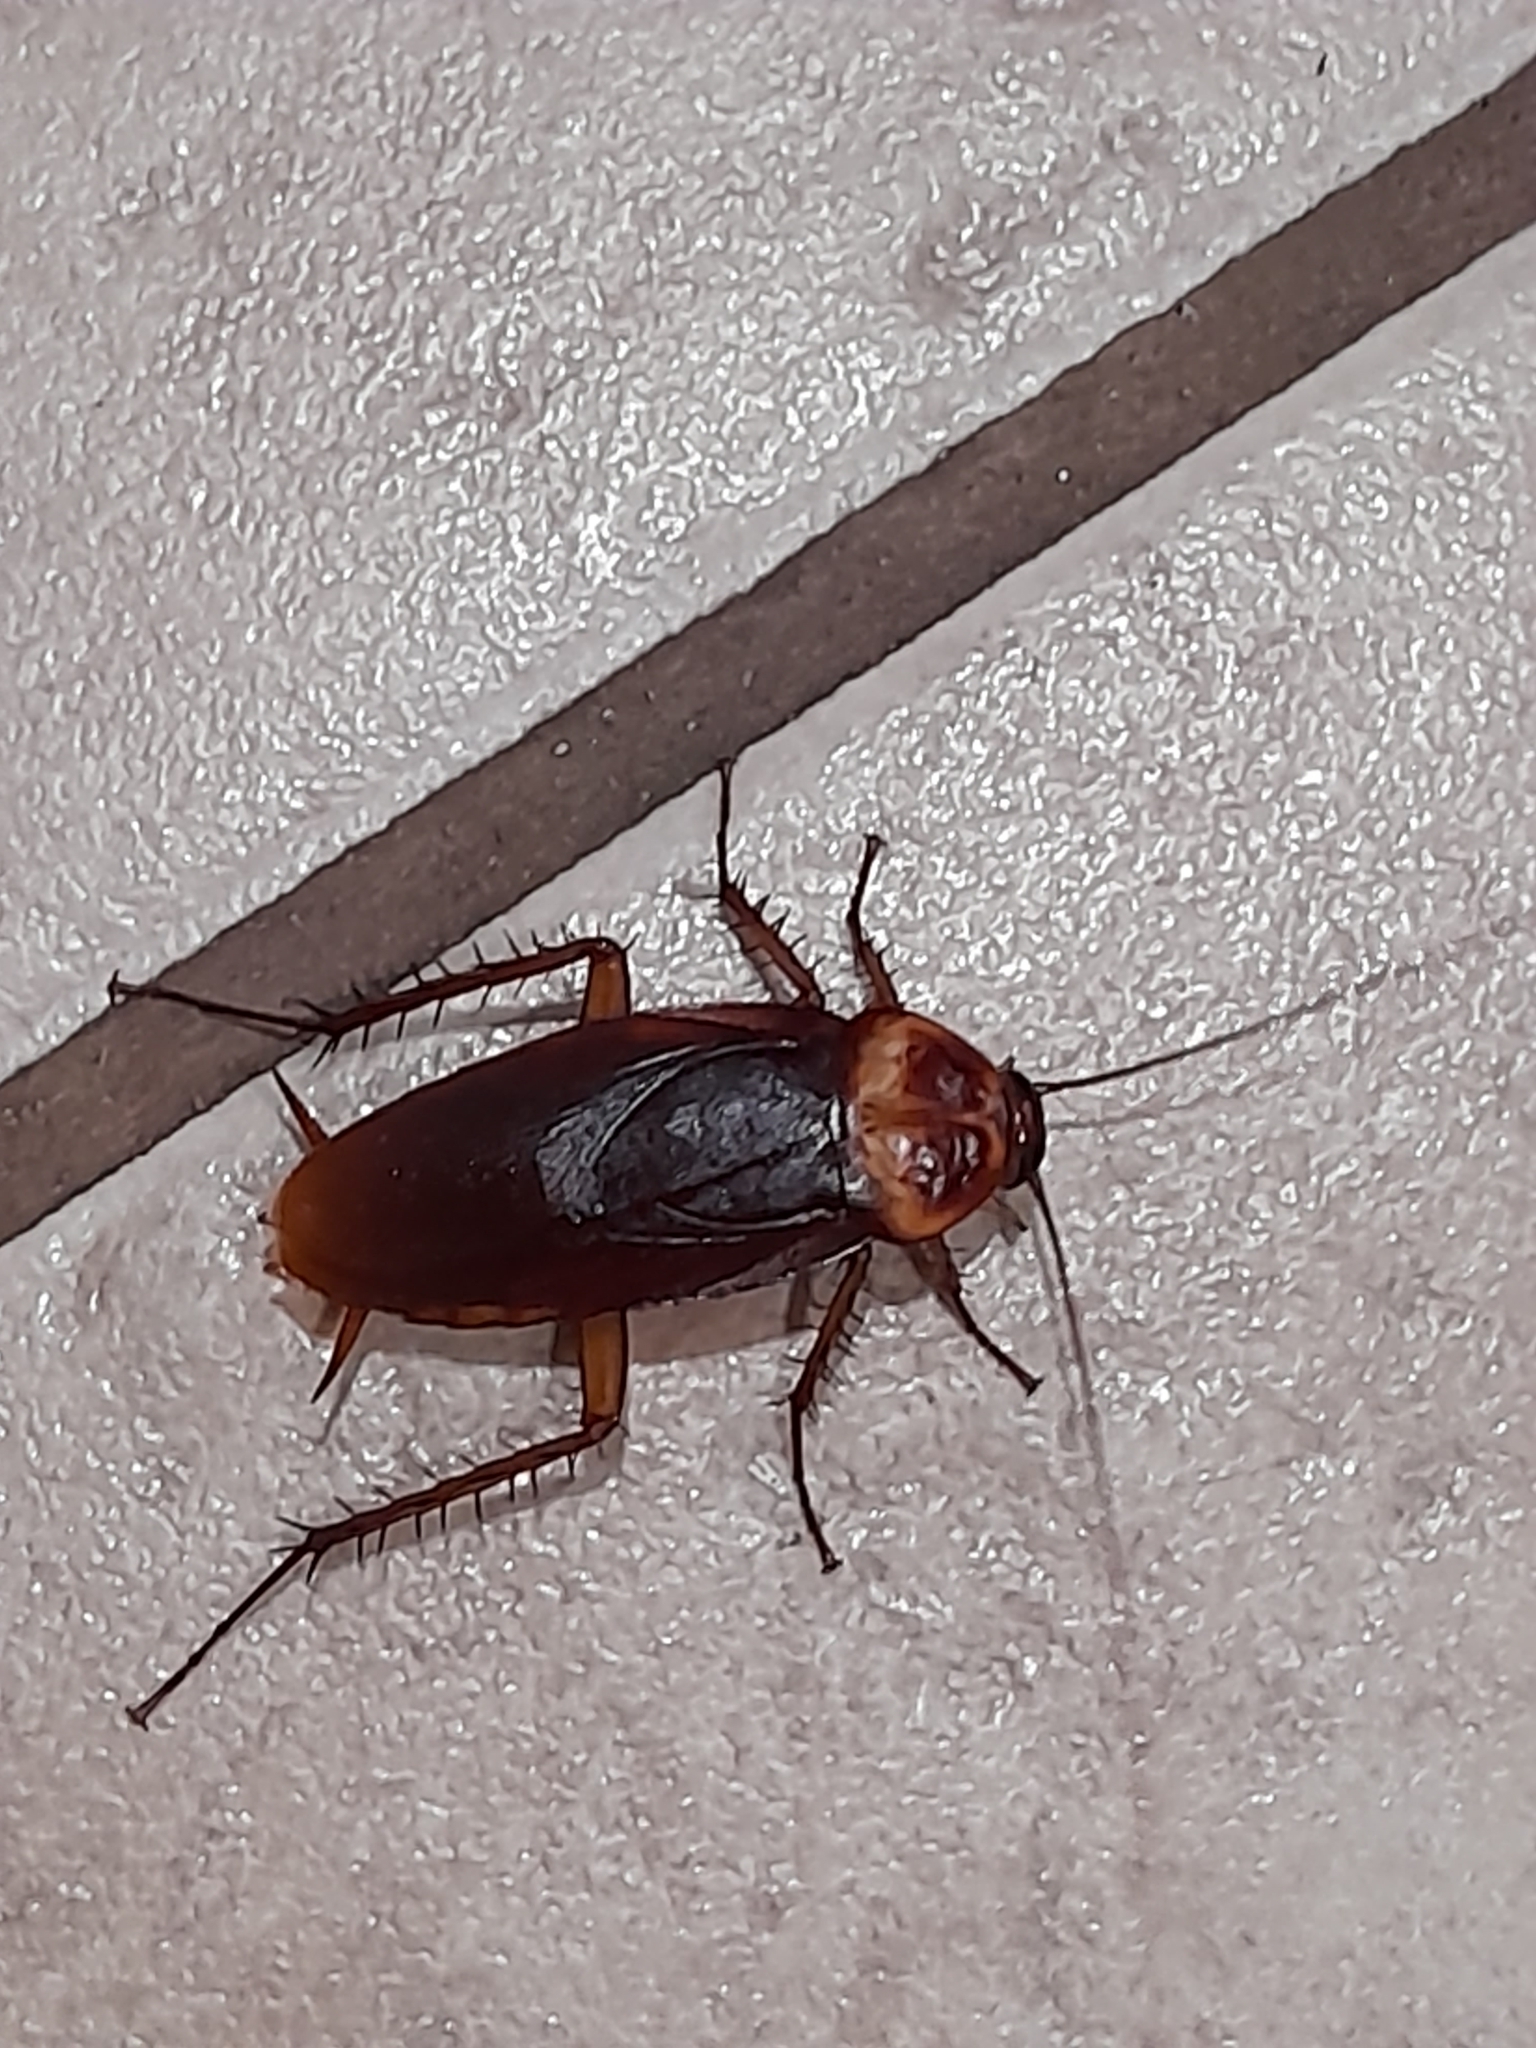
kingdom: Animalia
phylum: Arthropoda
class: Insecta
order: Blattodea
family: Blattidae
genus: Periplaneta
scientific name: Periplaneta americana
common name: American cockroach
